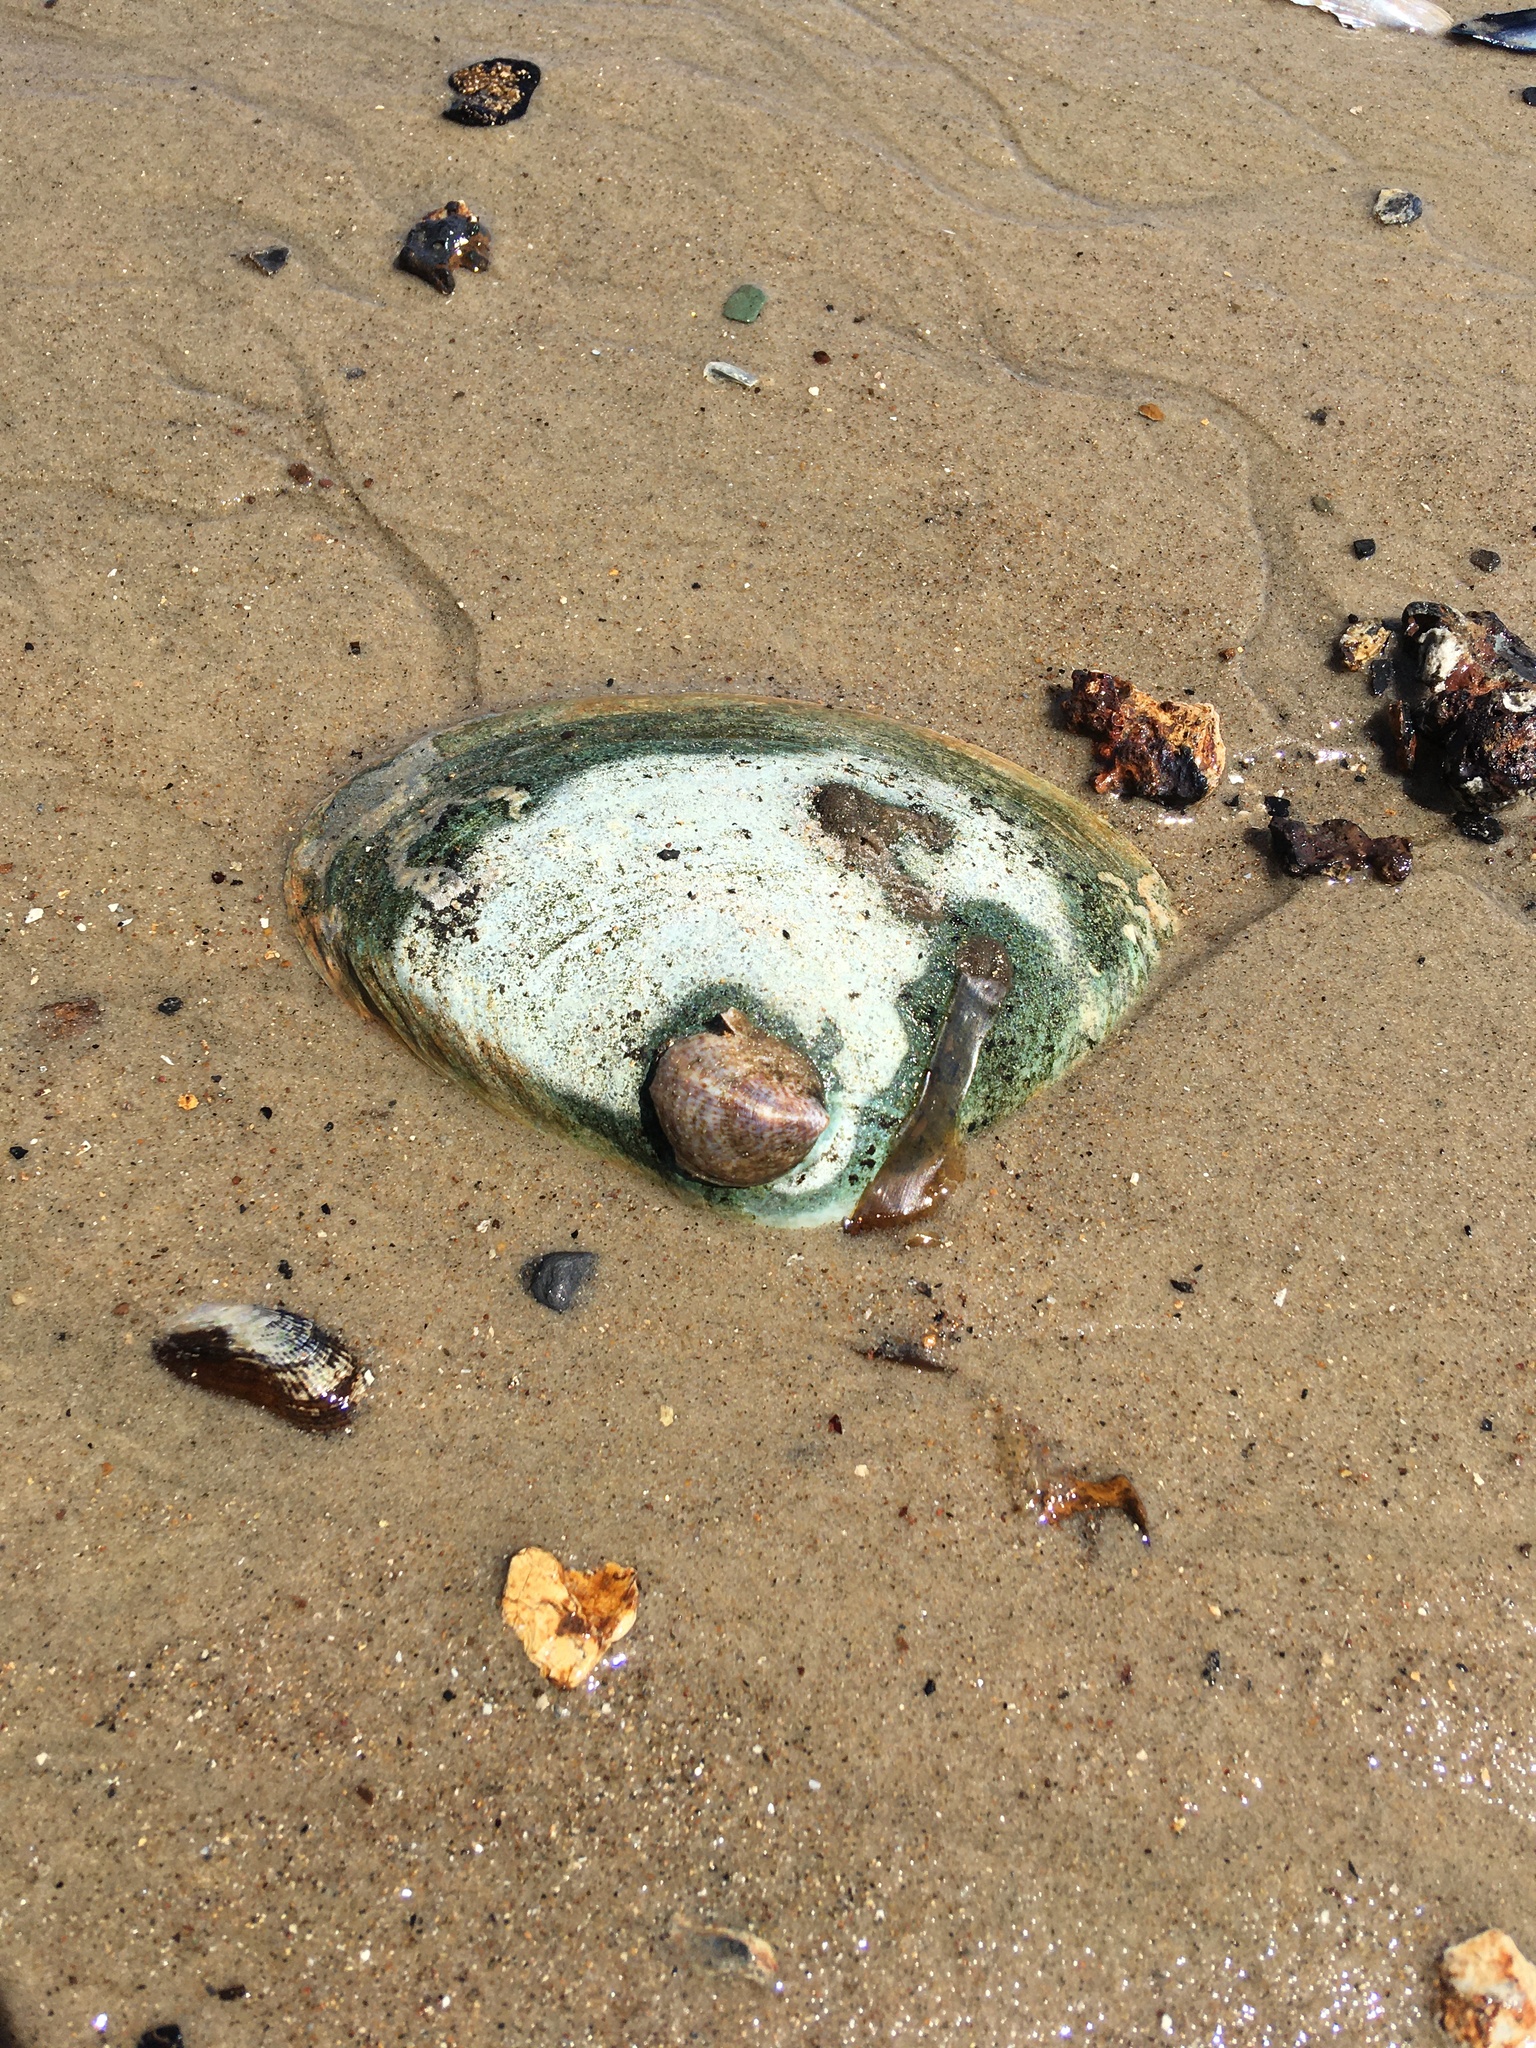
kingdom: Animalia
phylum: Mollusca
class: Bivalvia
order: Venerida
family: Mactridae
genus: Spisula
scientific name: Spisula solidissima
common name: Atlantic surf clam
